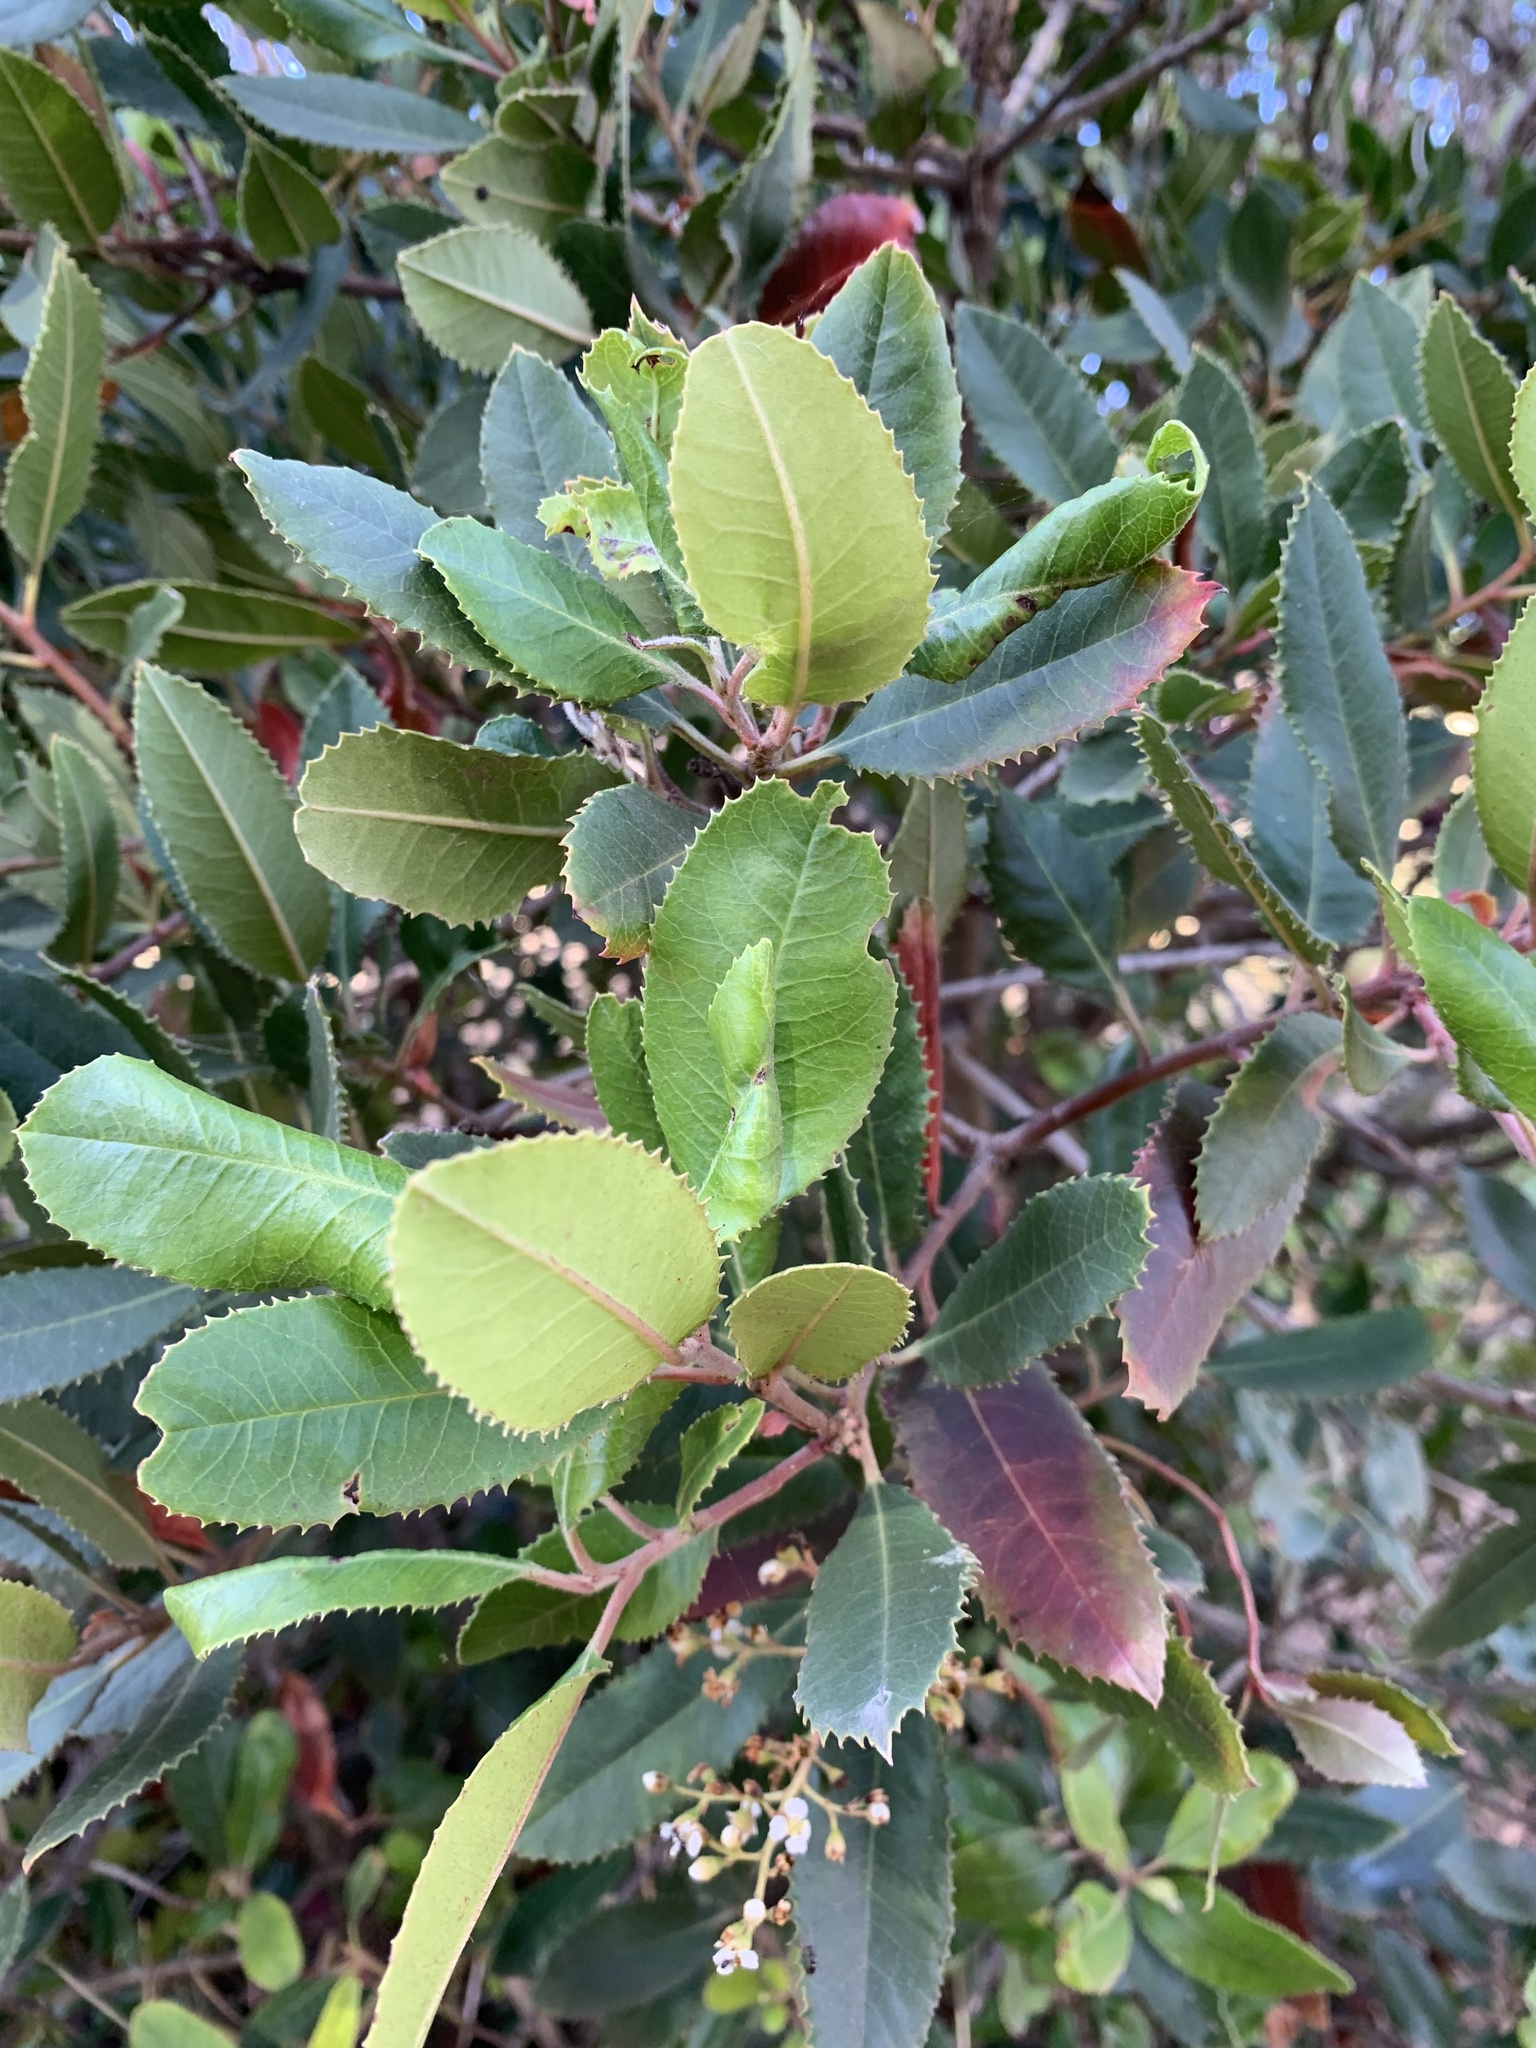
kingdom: Plantae
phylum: Tracheophyta
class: Magnoliopsida
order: Rosales
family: Rosaceae
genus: Heteromeles
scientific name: Heteromeles arbutifolia
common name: California-holly
